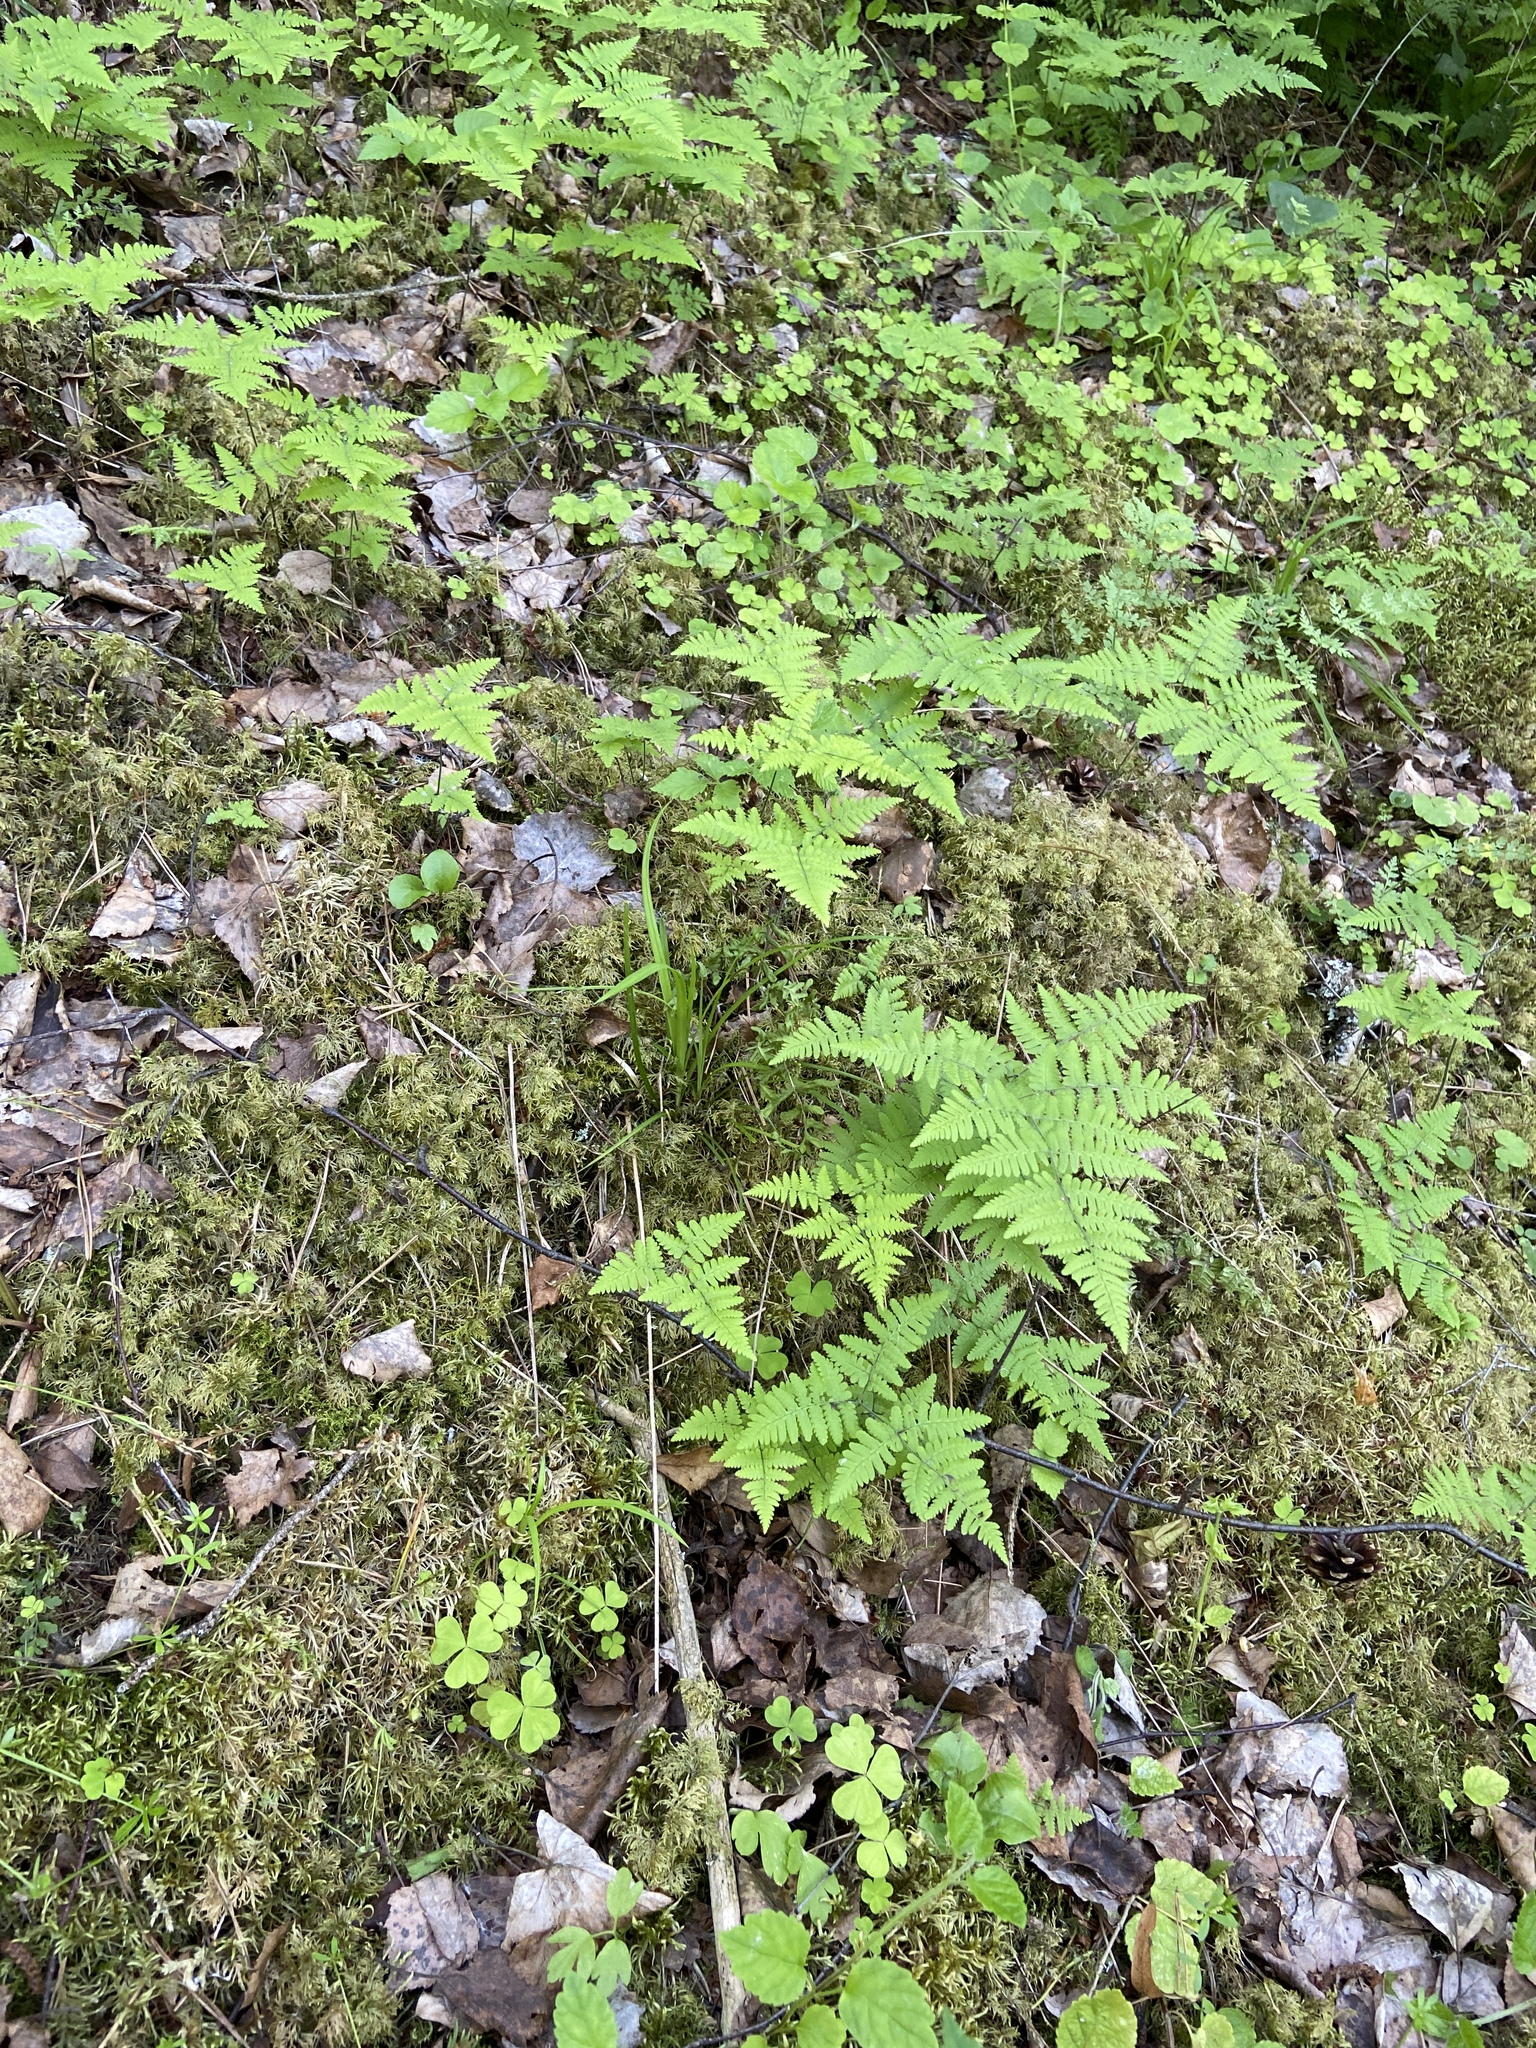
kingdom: Plantae
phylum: Tracheophyta
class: Polypodiopsida
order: Polypodiales
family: Cystopteridaceae
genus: Gymnocarpium
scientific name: Gymnocarpium robertianum
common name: Limestone fern
